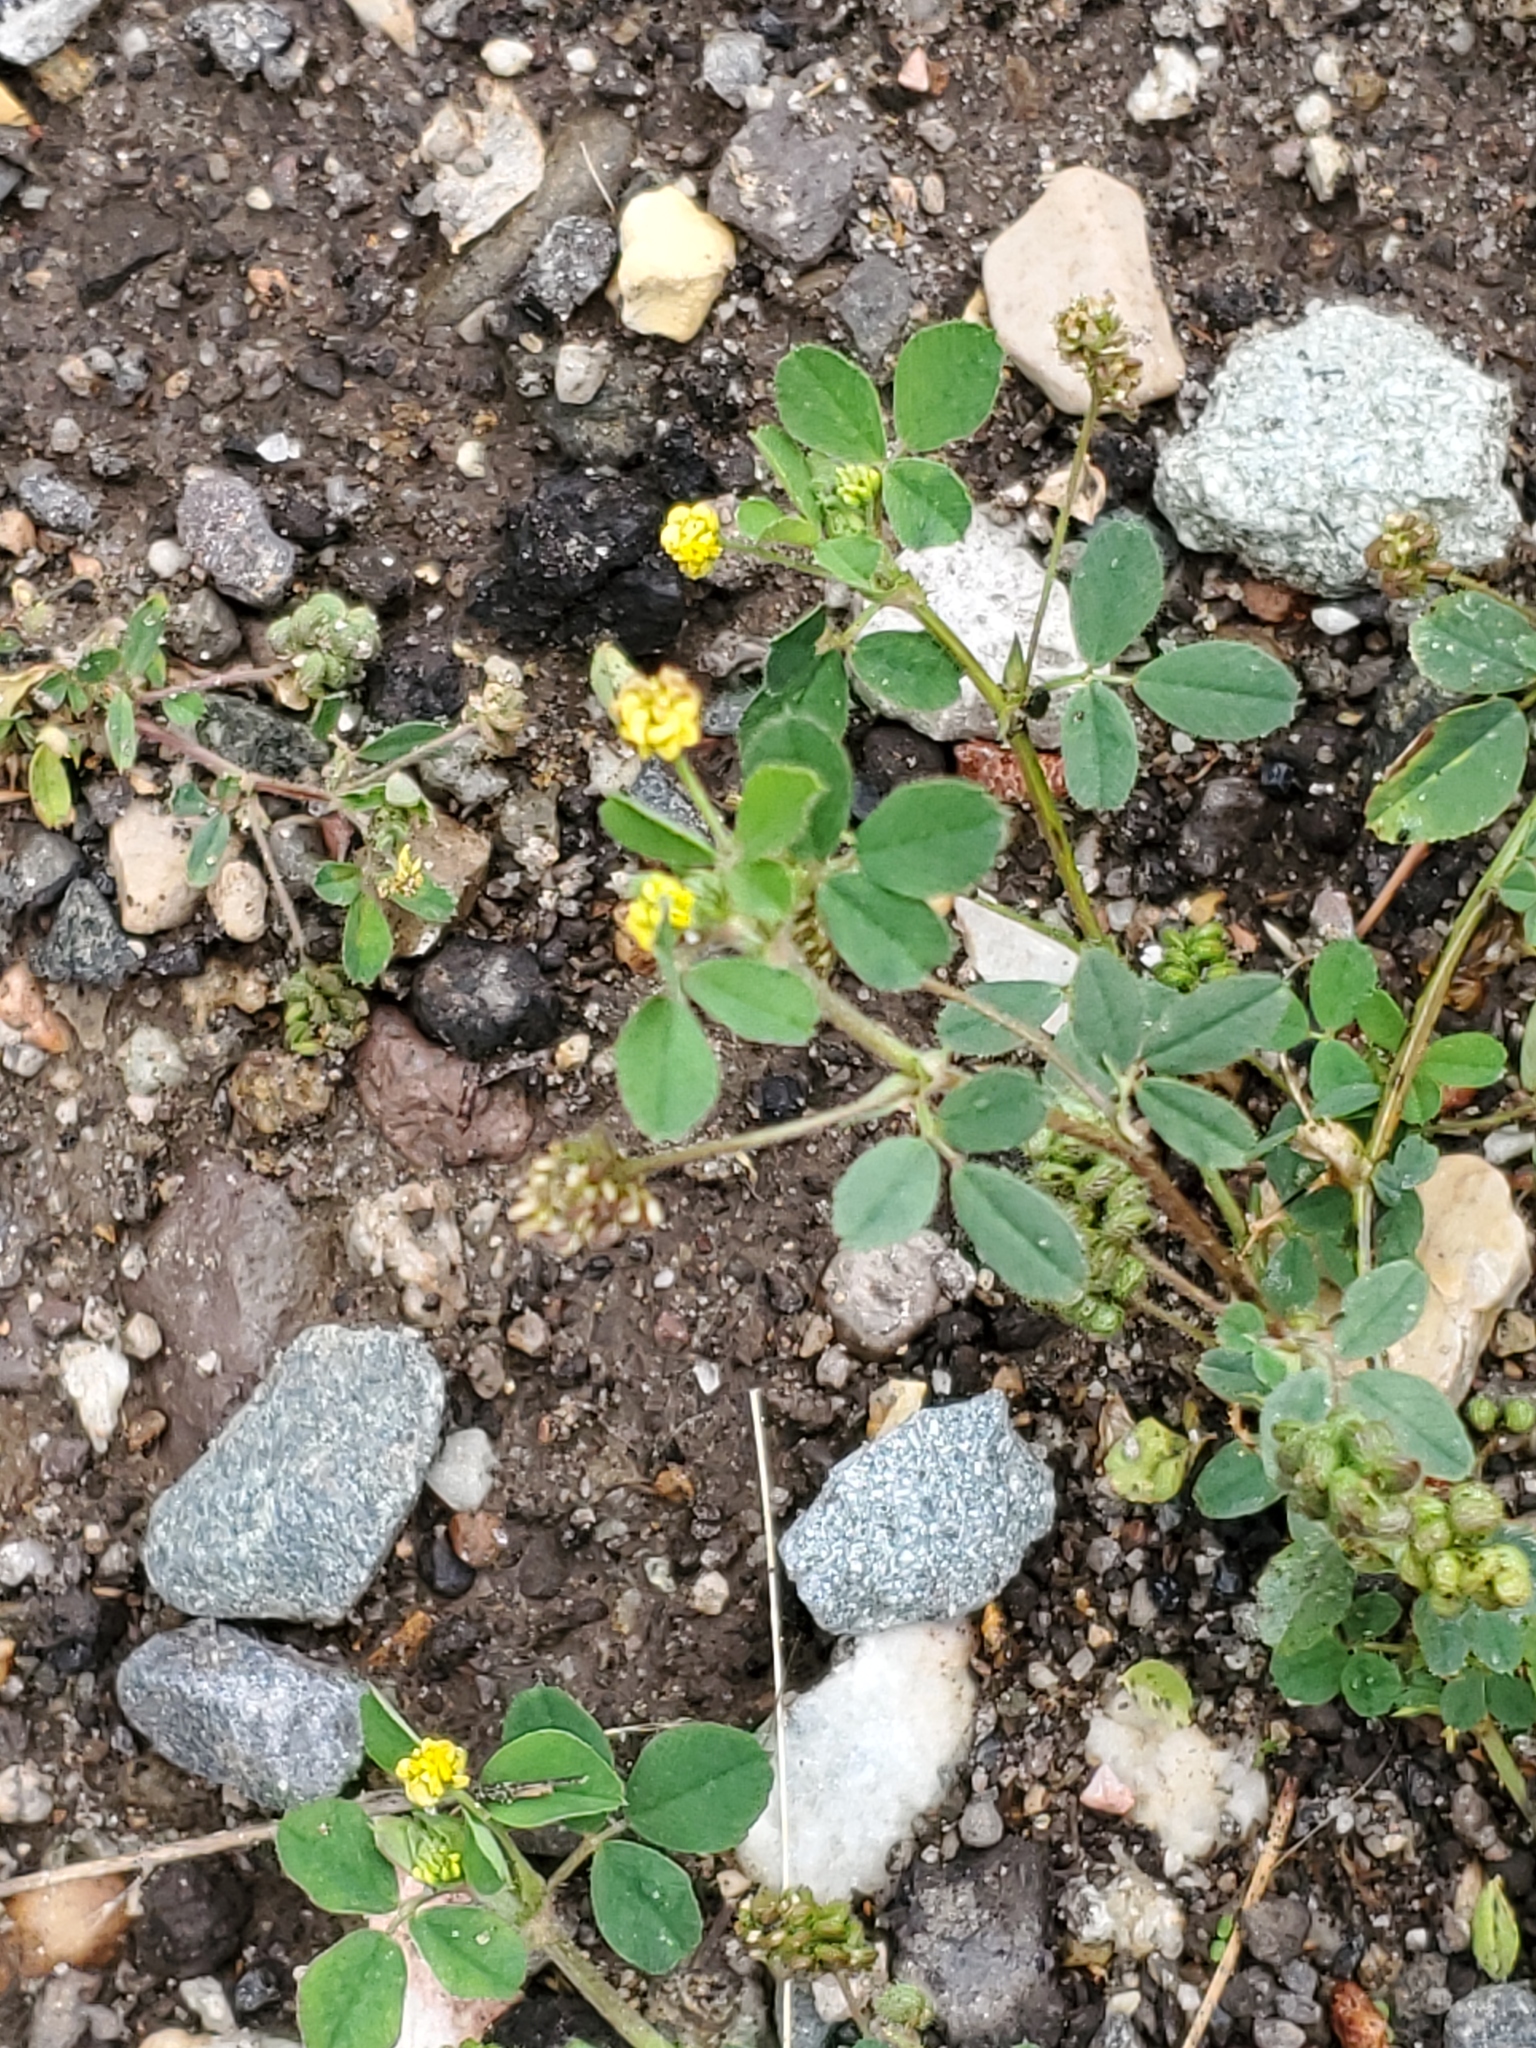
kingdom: Plantae
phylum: Tracheophyta
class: Magnoliopsida
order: Fabales
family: Fabaceae
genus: Medicago
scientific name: Medicago lupulina
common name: Black medick
